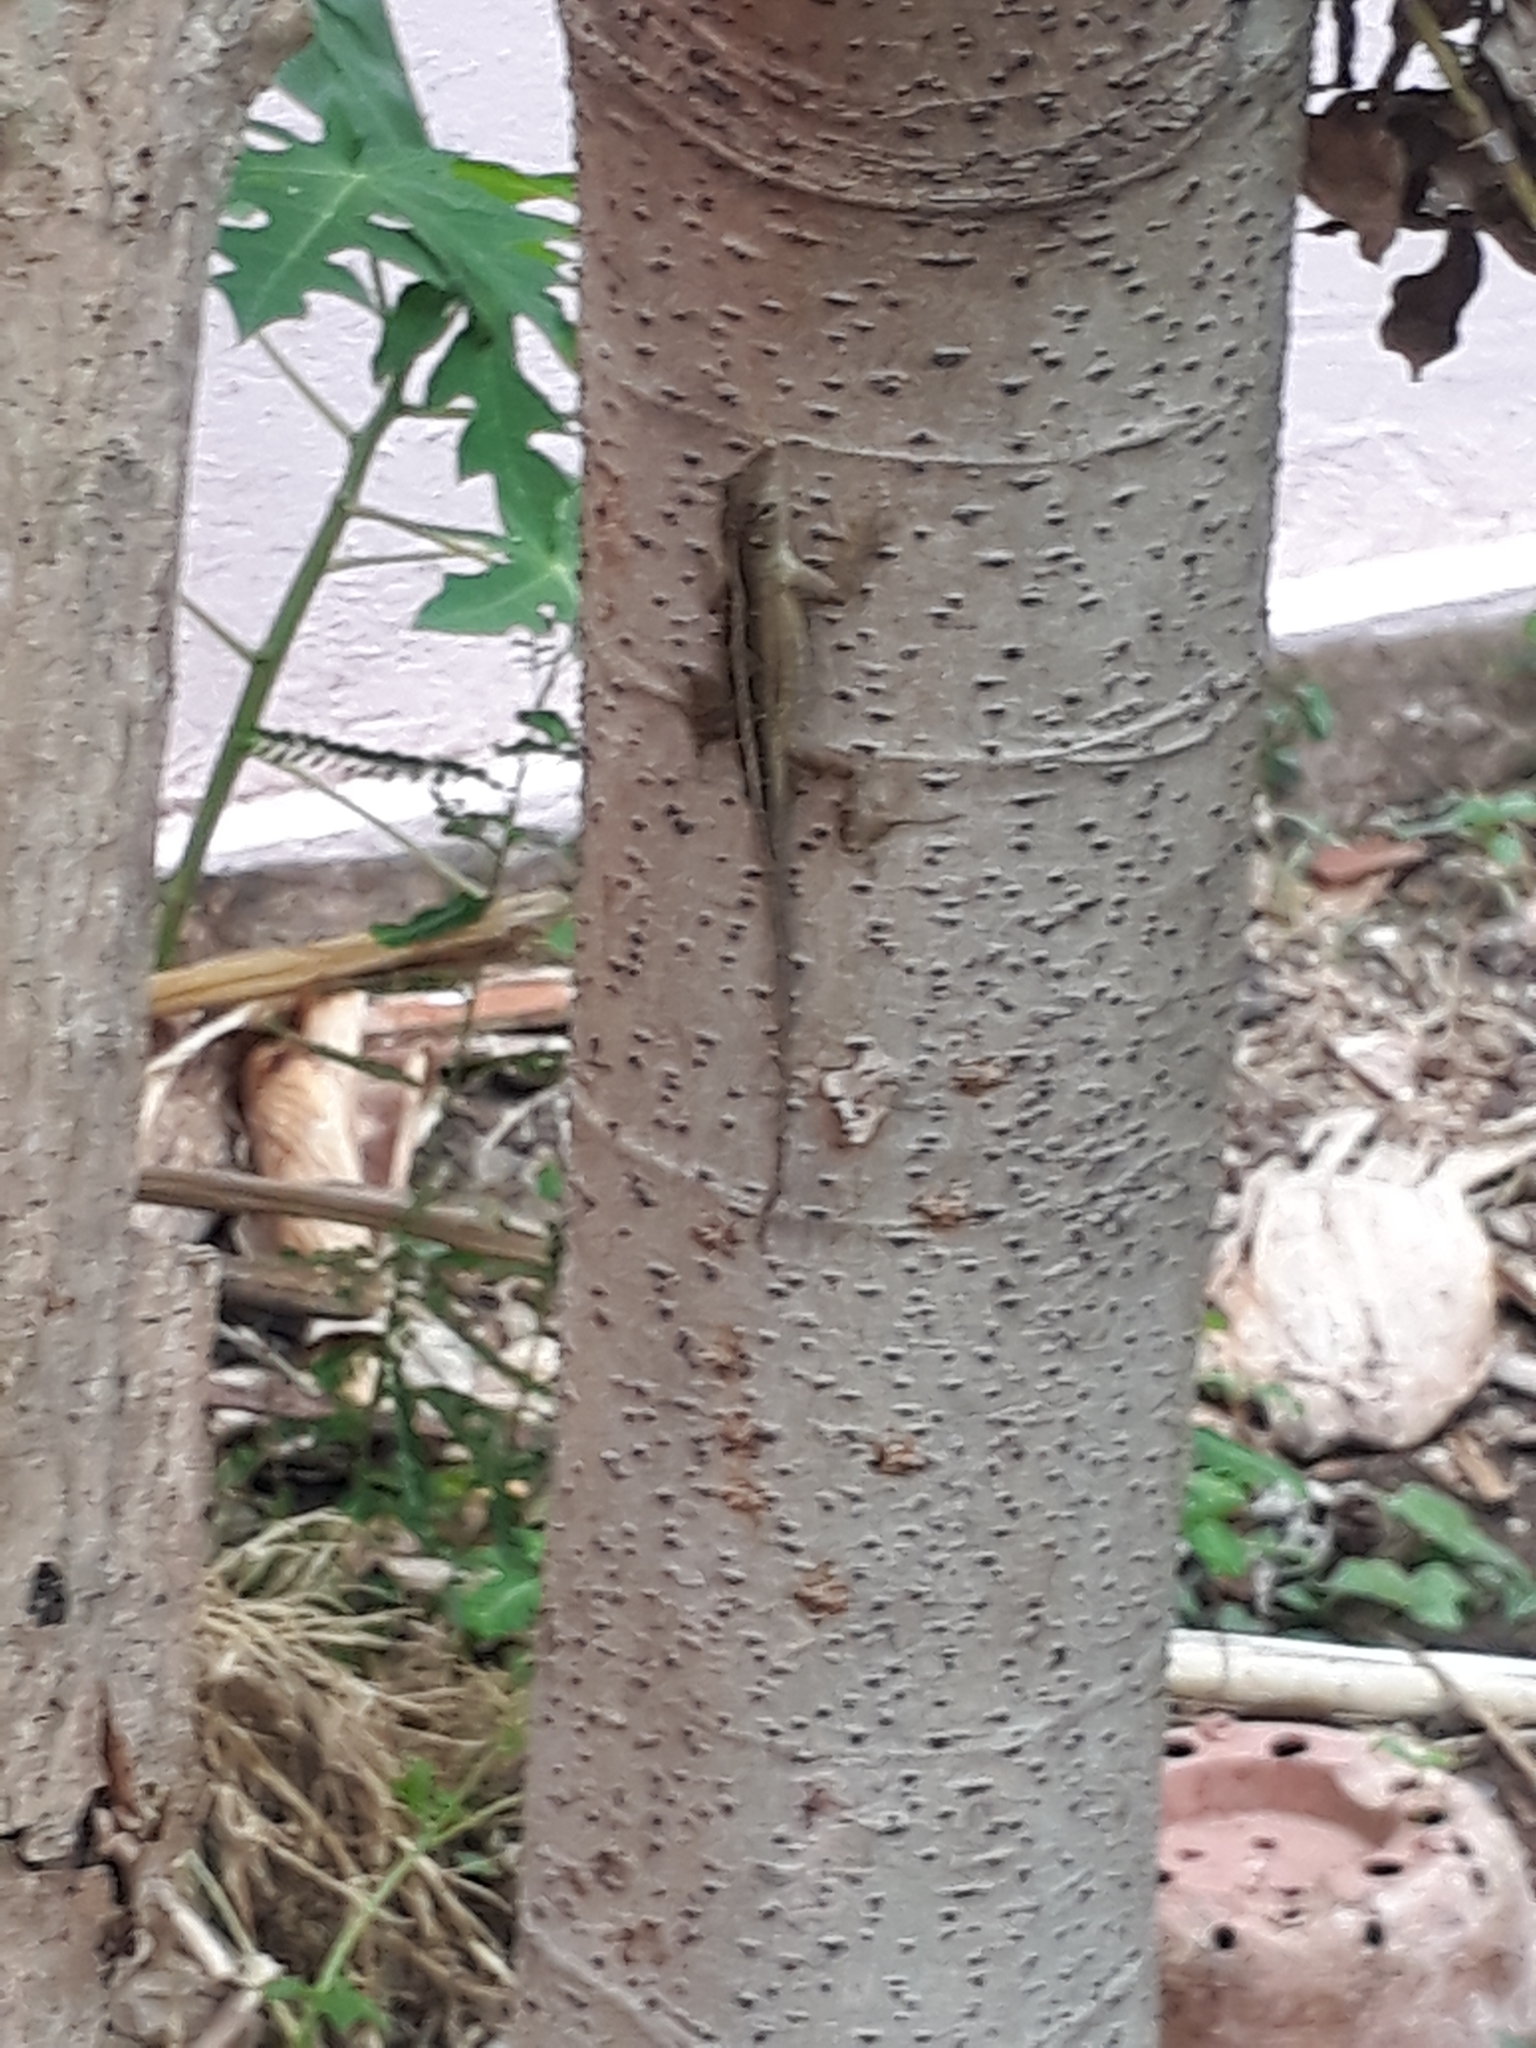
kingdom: Animalia
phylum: Chordata
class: Squamata
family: Dactyloidae
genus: Anolis
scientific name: Anolis sagrei
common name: Brown anole
